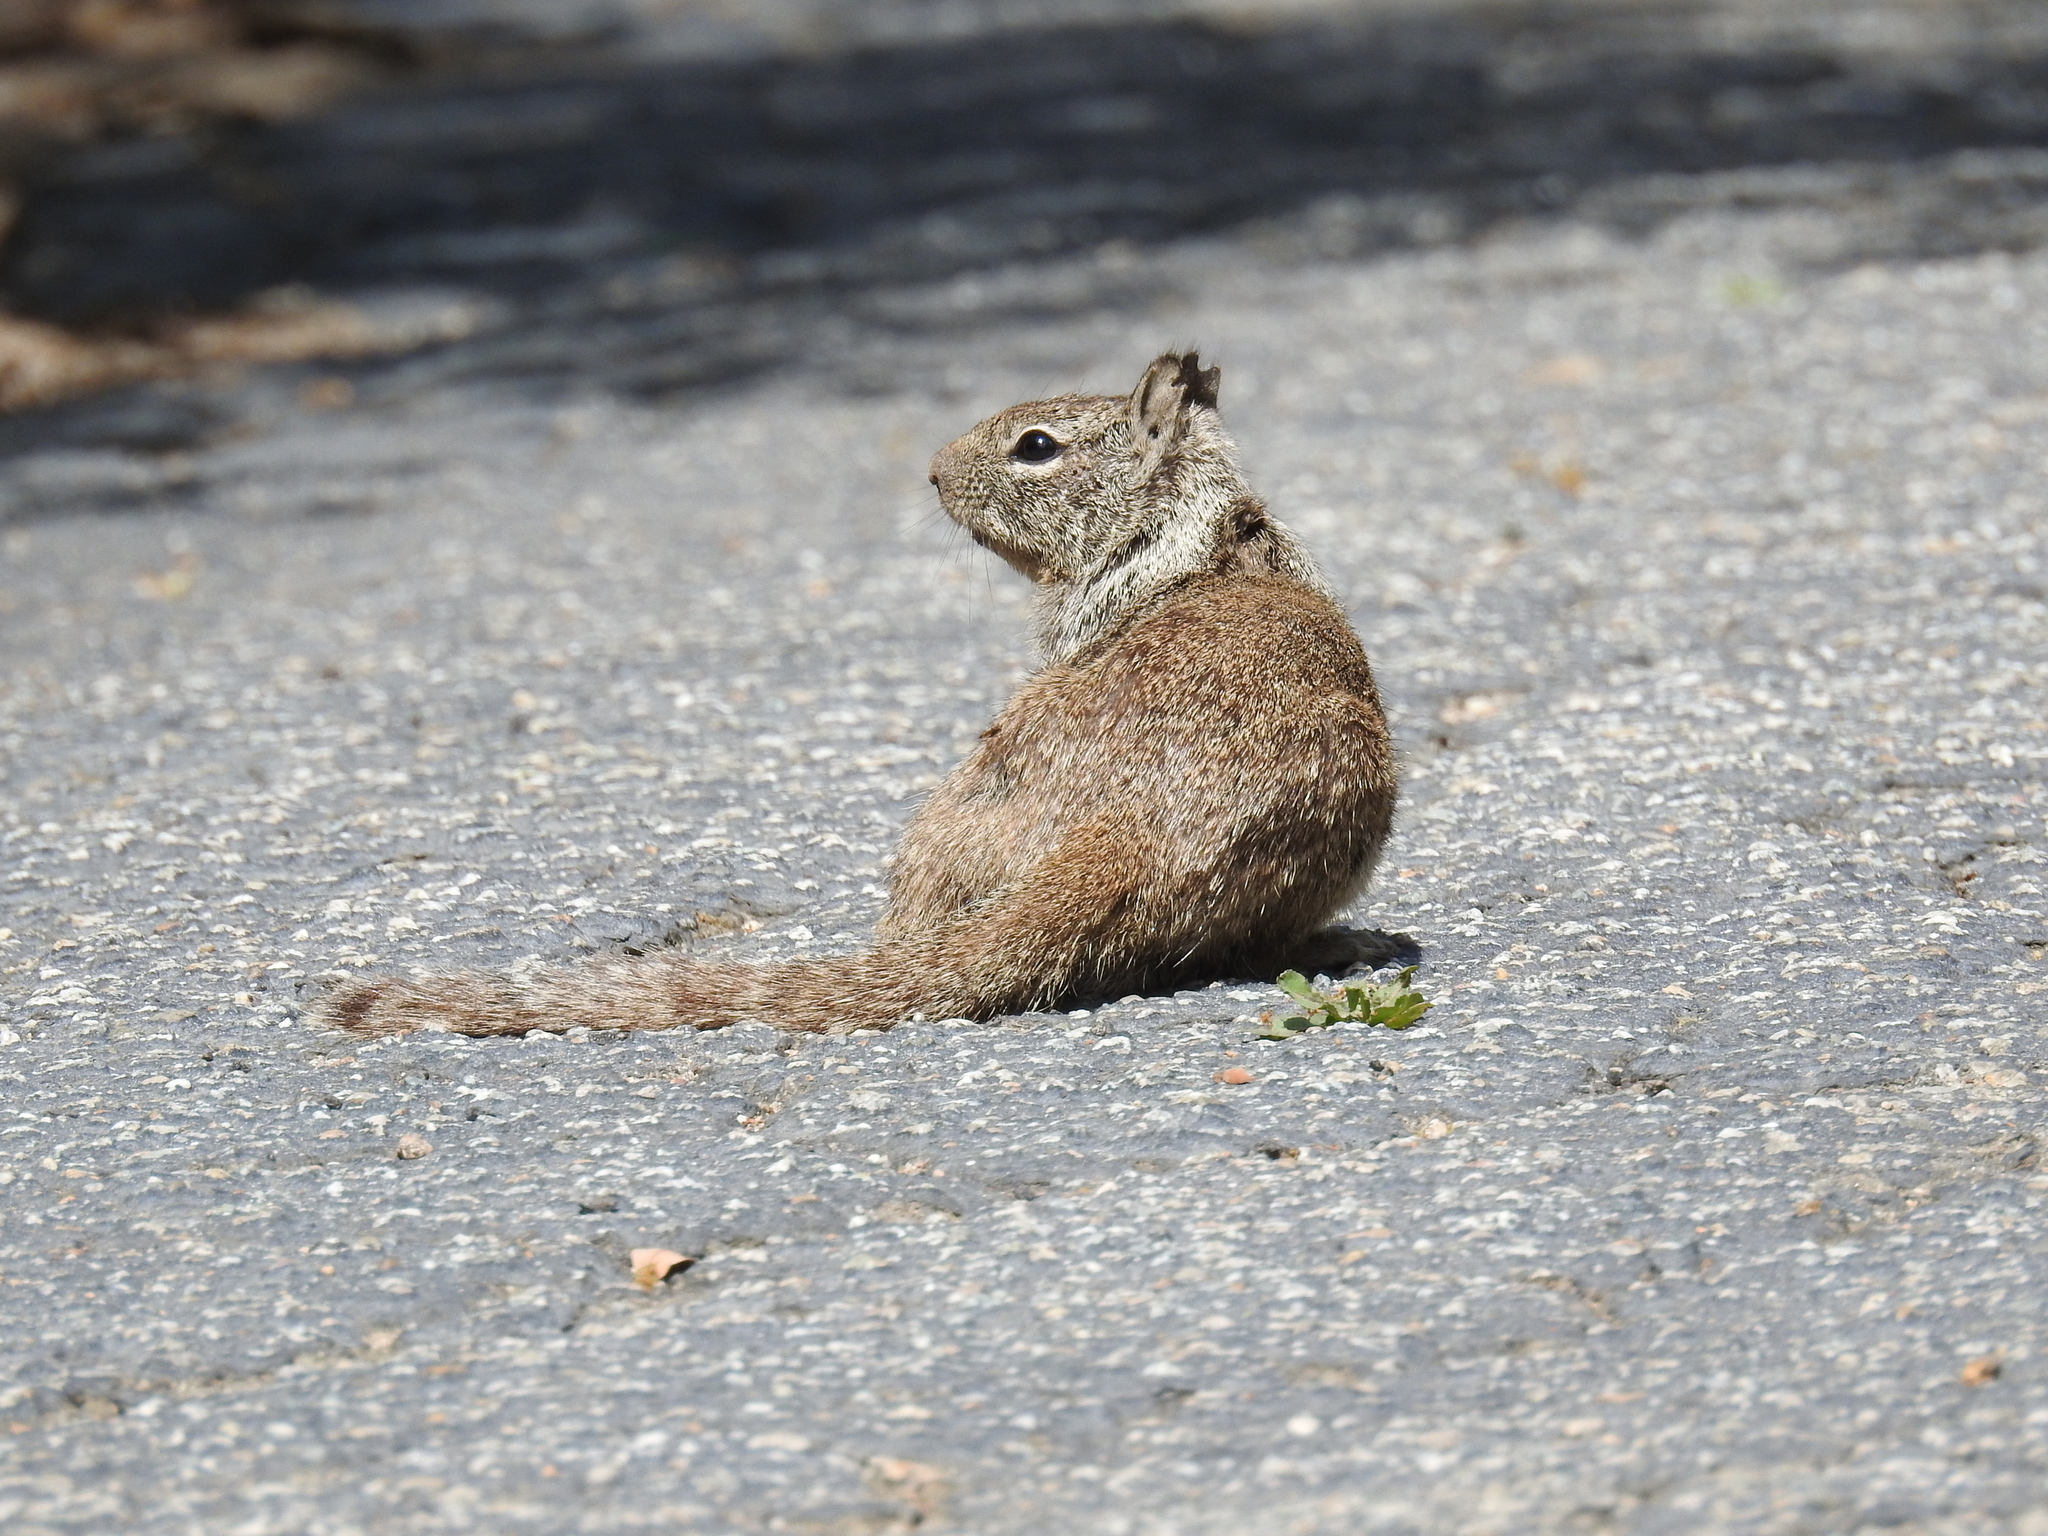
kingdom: Animalia
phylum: Chordata
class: Mammalia
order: Rodentia
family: Sciuridae
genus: Otospermophilus
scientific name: Otospermophilus beecheyi
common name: California ground squirrel
